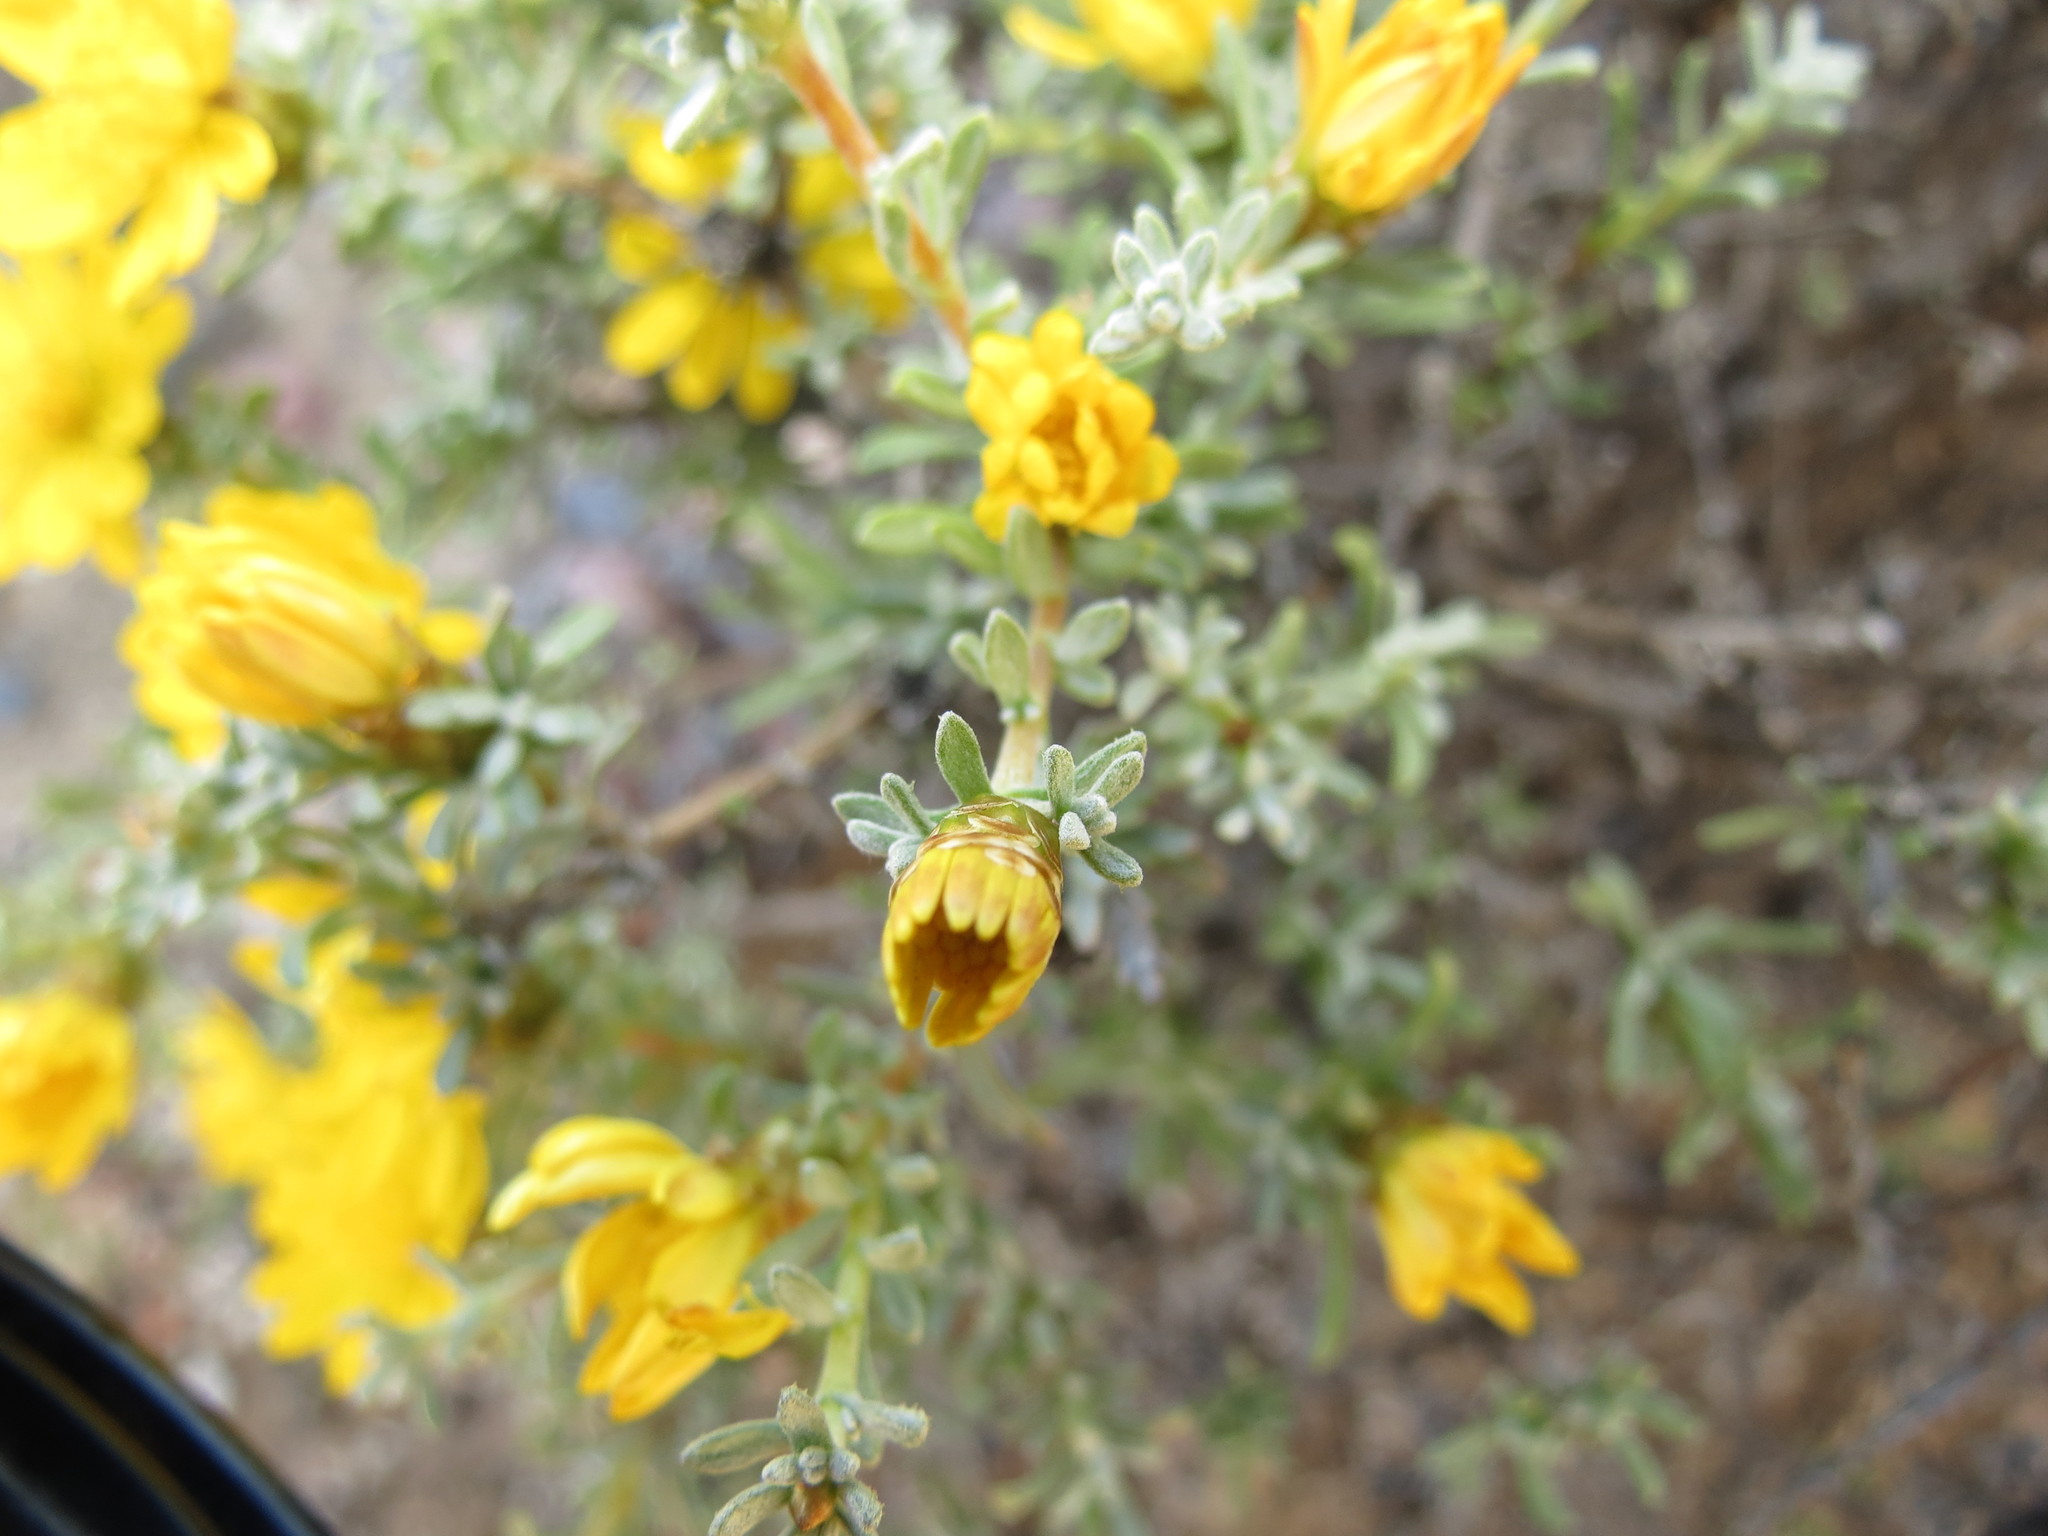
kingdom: Plantae
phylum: Tracheophyta
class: Magnoliopsida
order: Asterales
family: Asteraceae
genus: Oedera
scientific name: Oedera humilis
